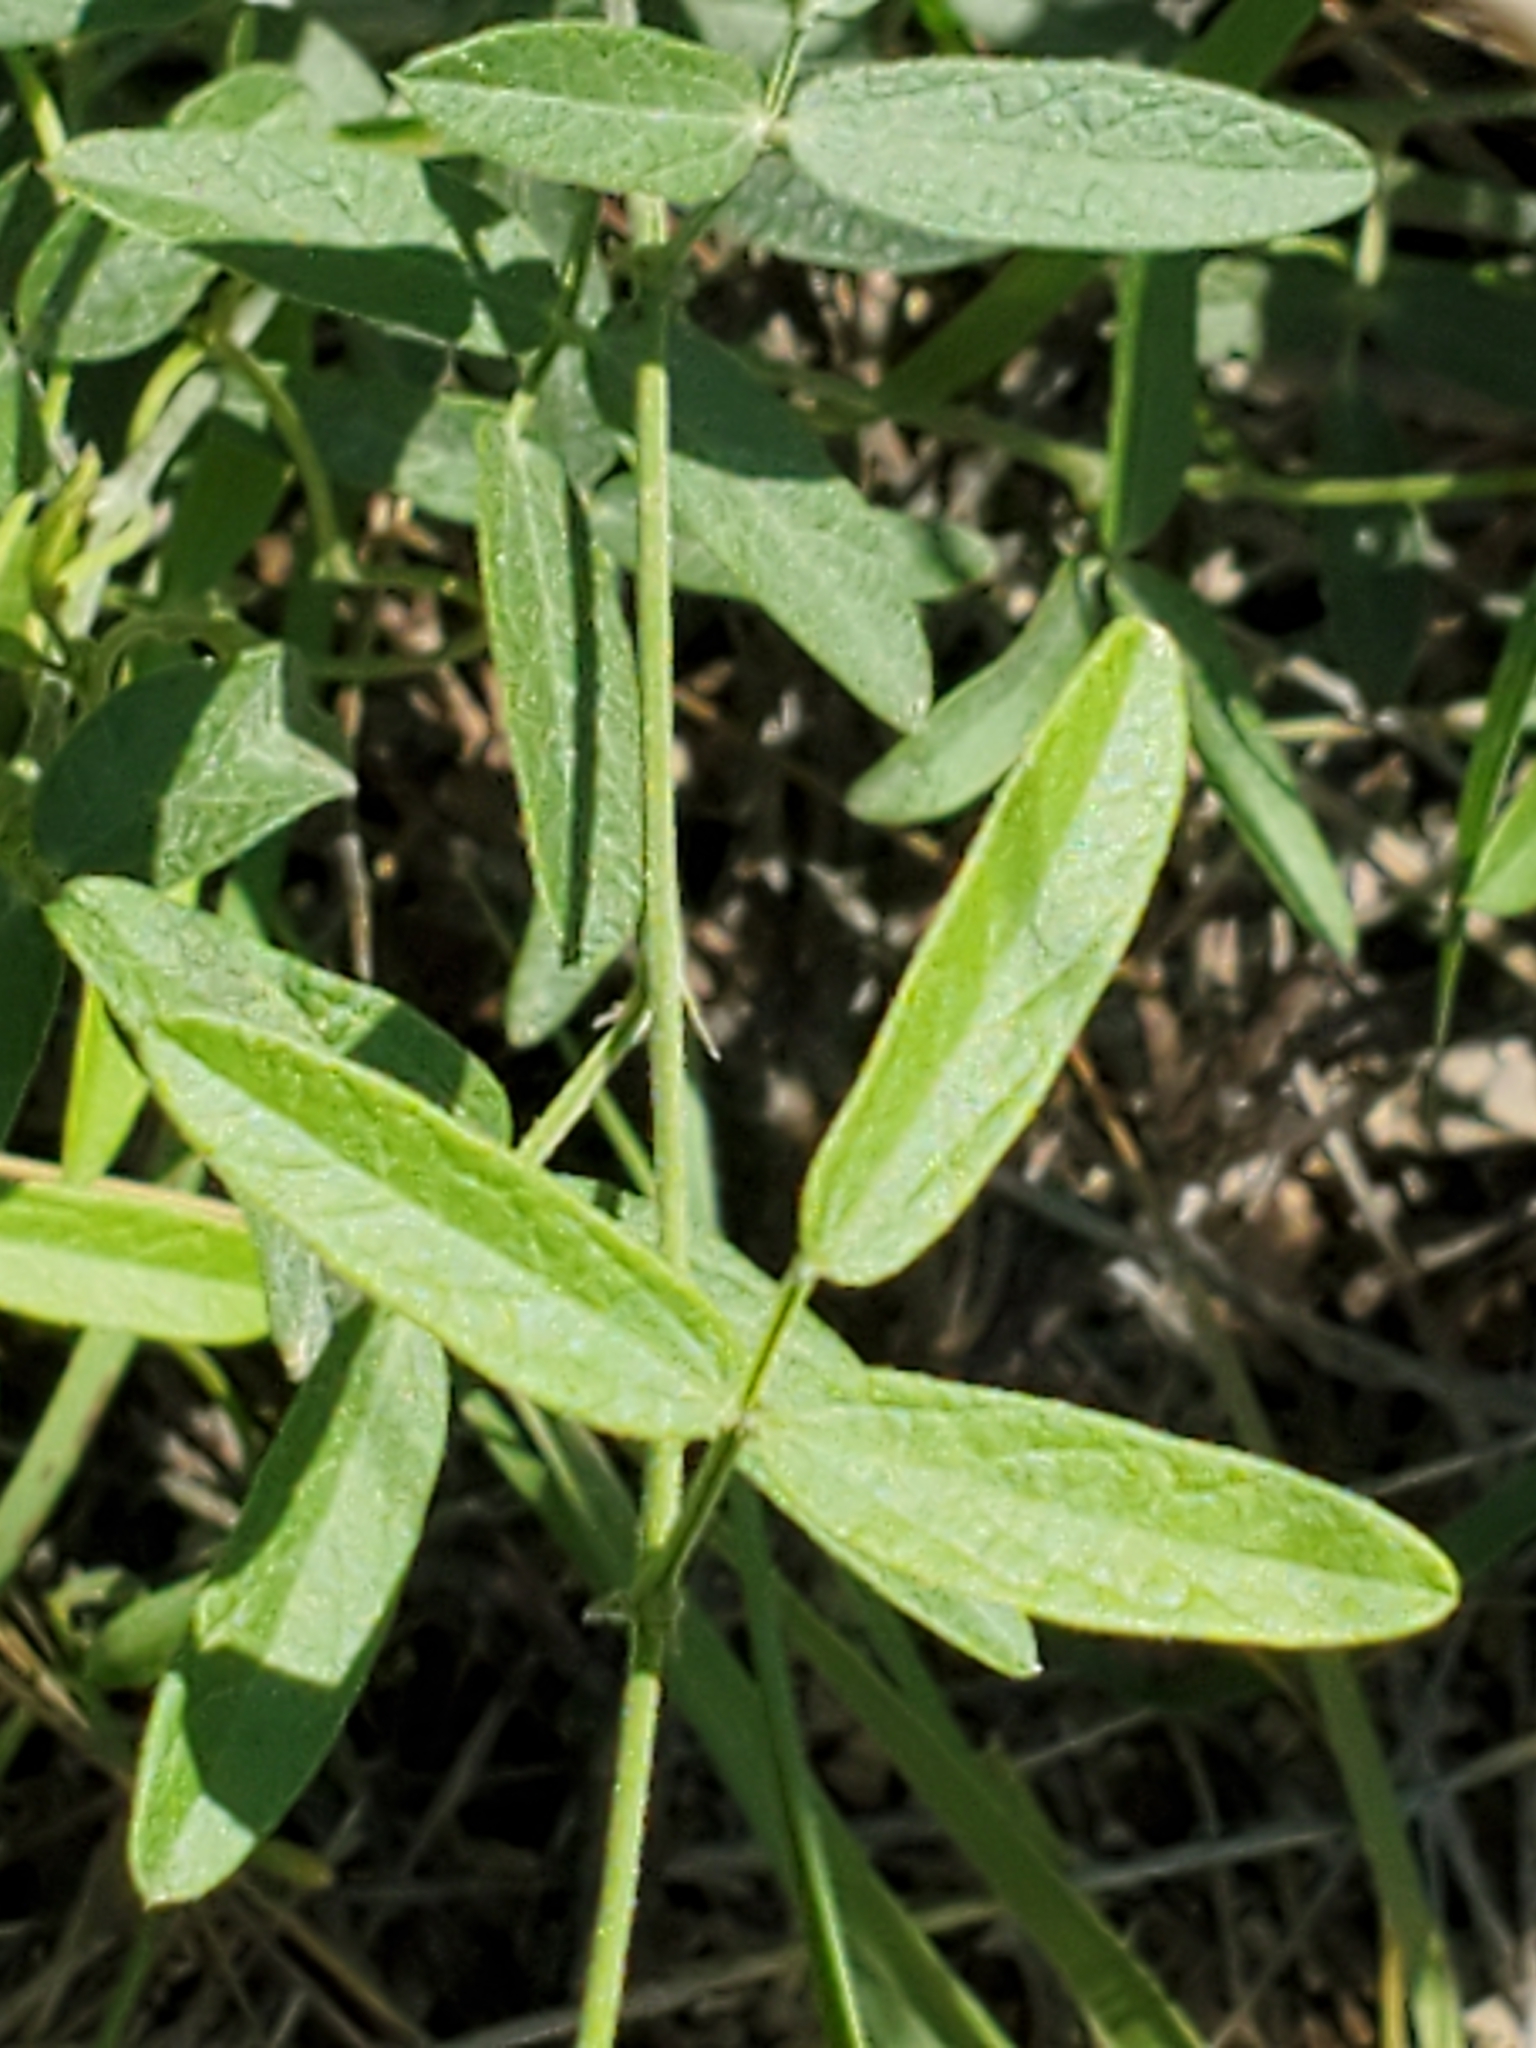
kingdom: Plantae
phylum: Tracheophyta
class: Magnoliopsida
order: Fabales
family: Fabaceae
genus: Rhynchosia
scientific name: Rhynchosia senna
